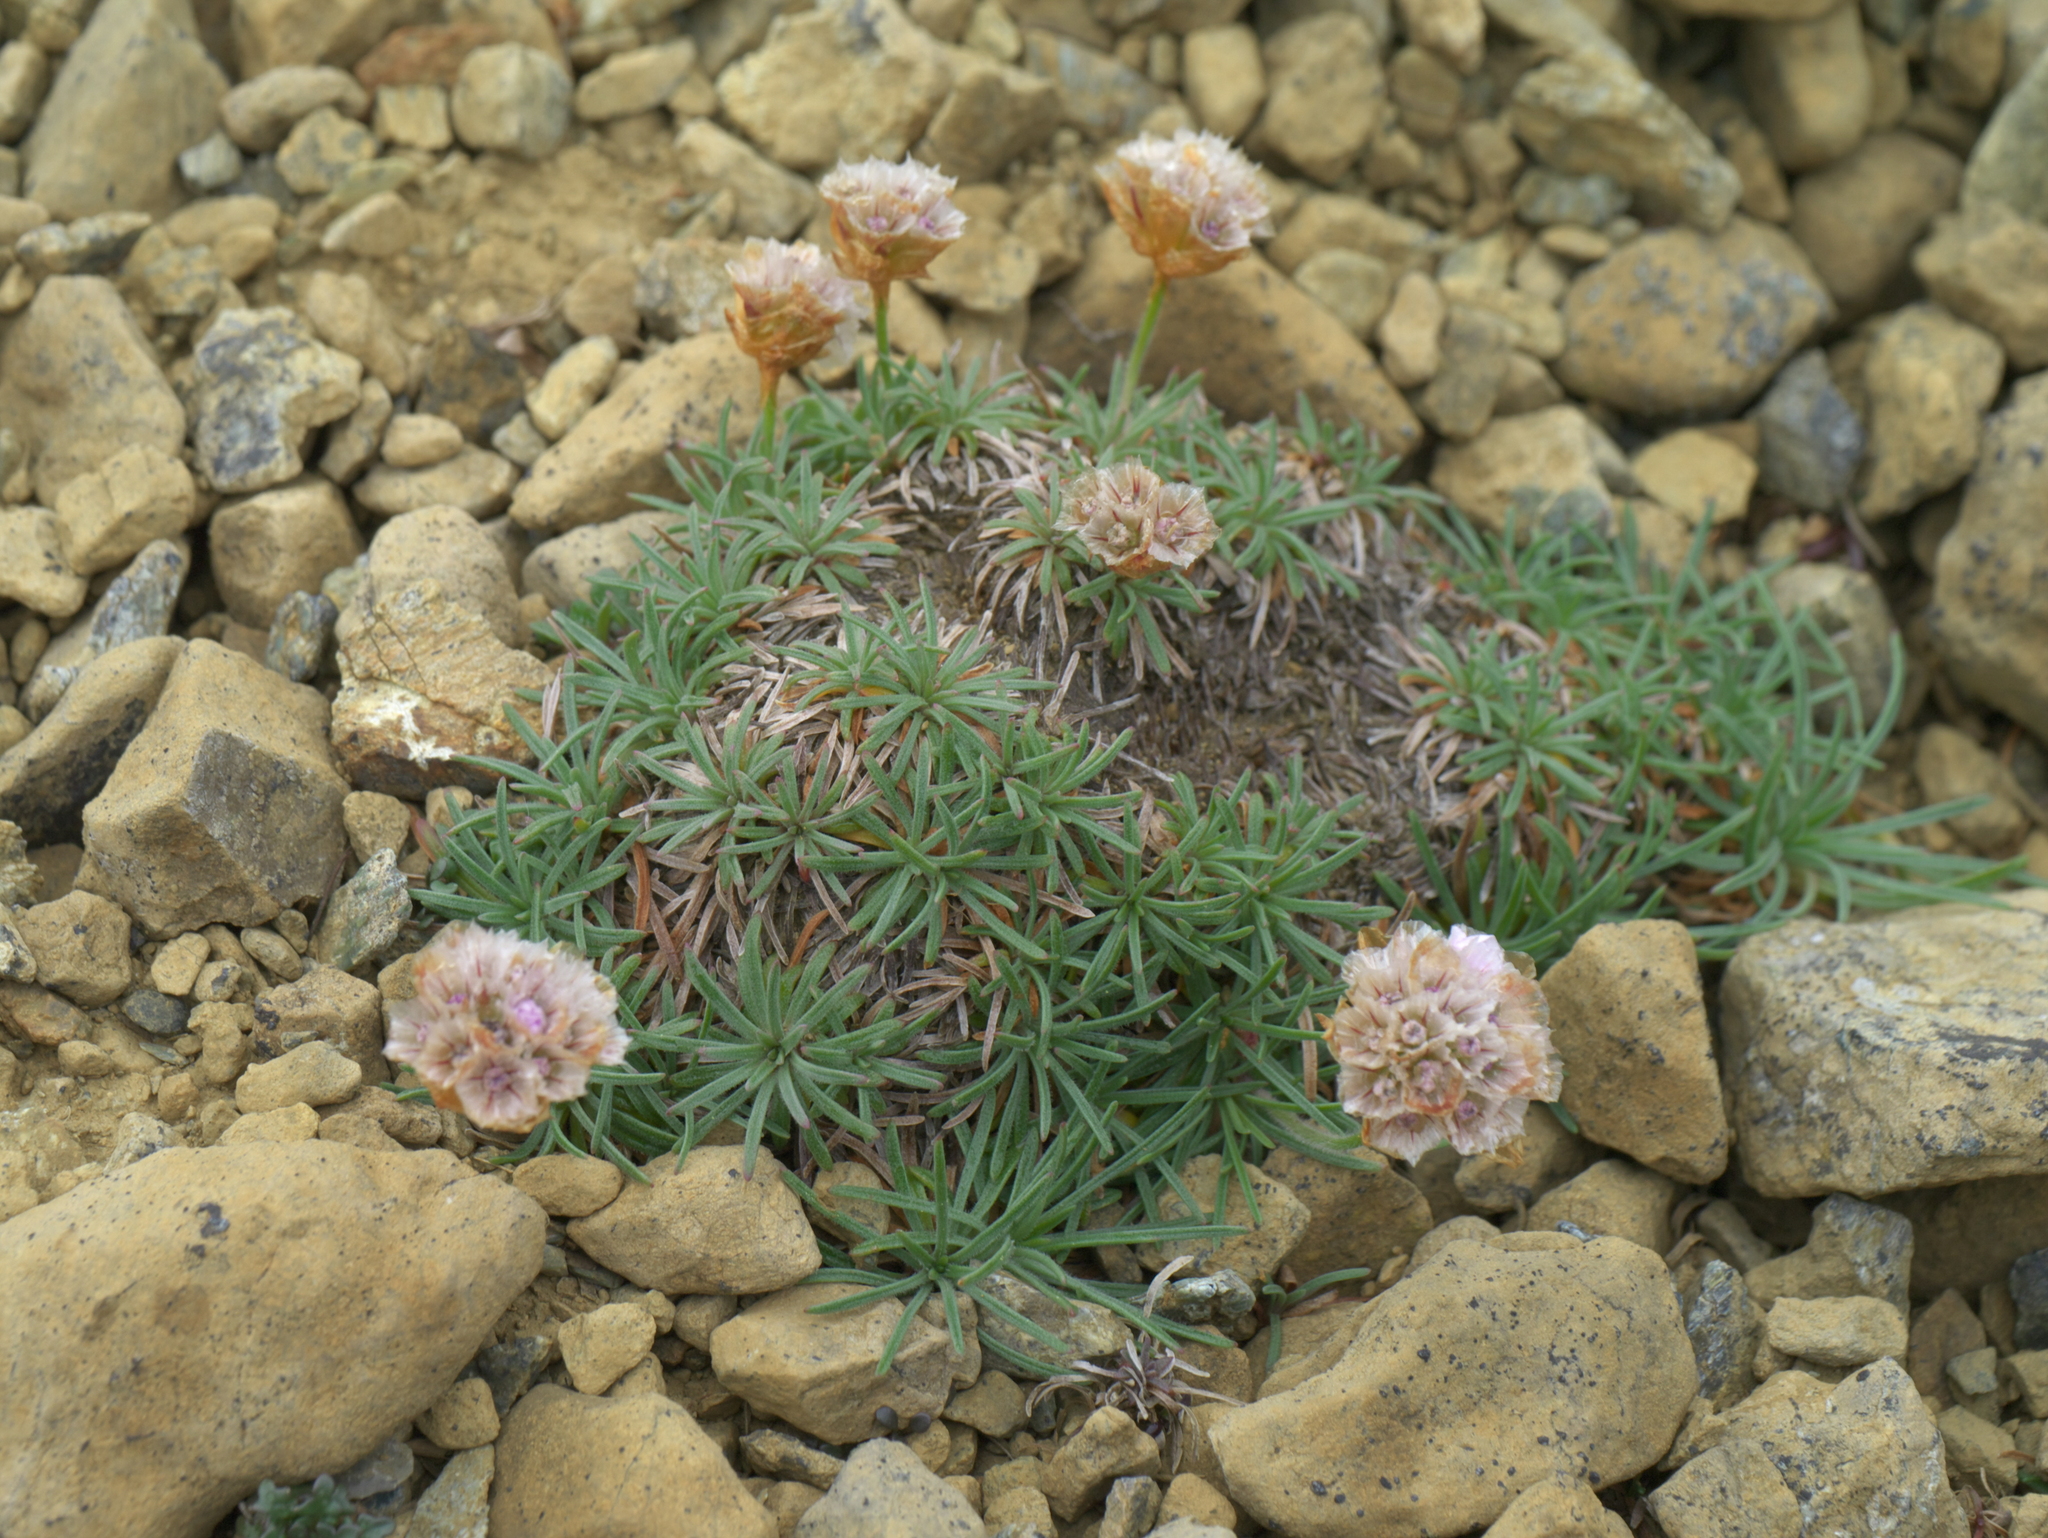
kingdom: Plantae
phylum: Tracheophyta
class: Magnoliopsida
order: Caryophyllales
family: Plumbaginaceae
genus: Armeria
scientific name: Armeria maritima
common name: Thrift
